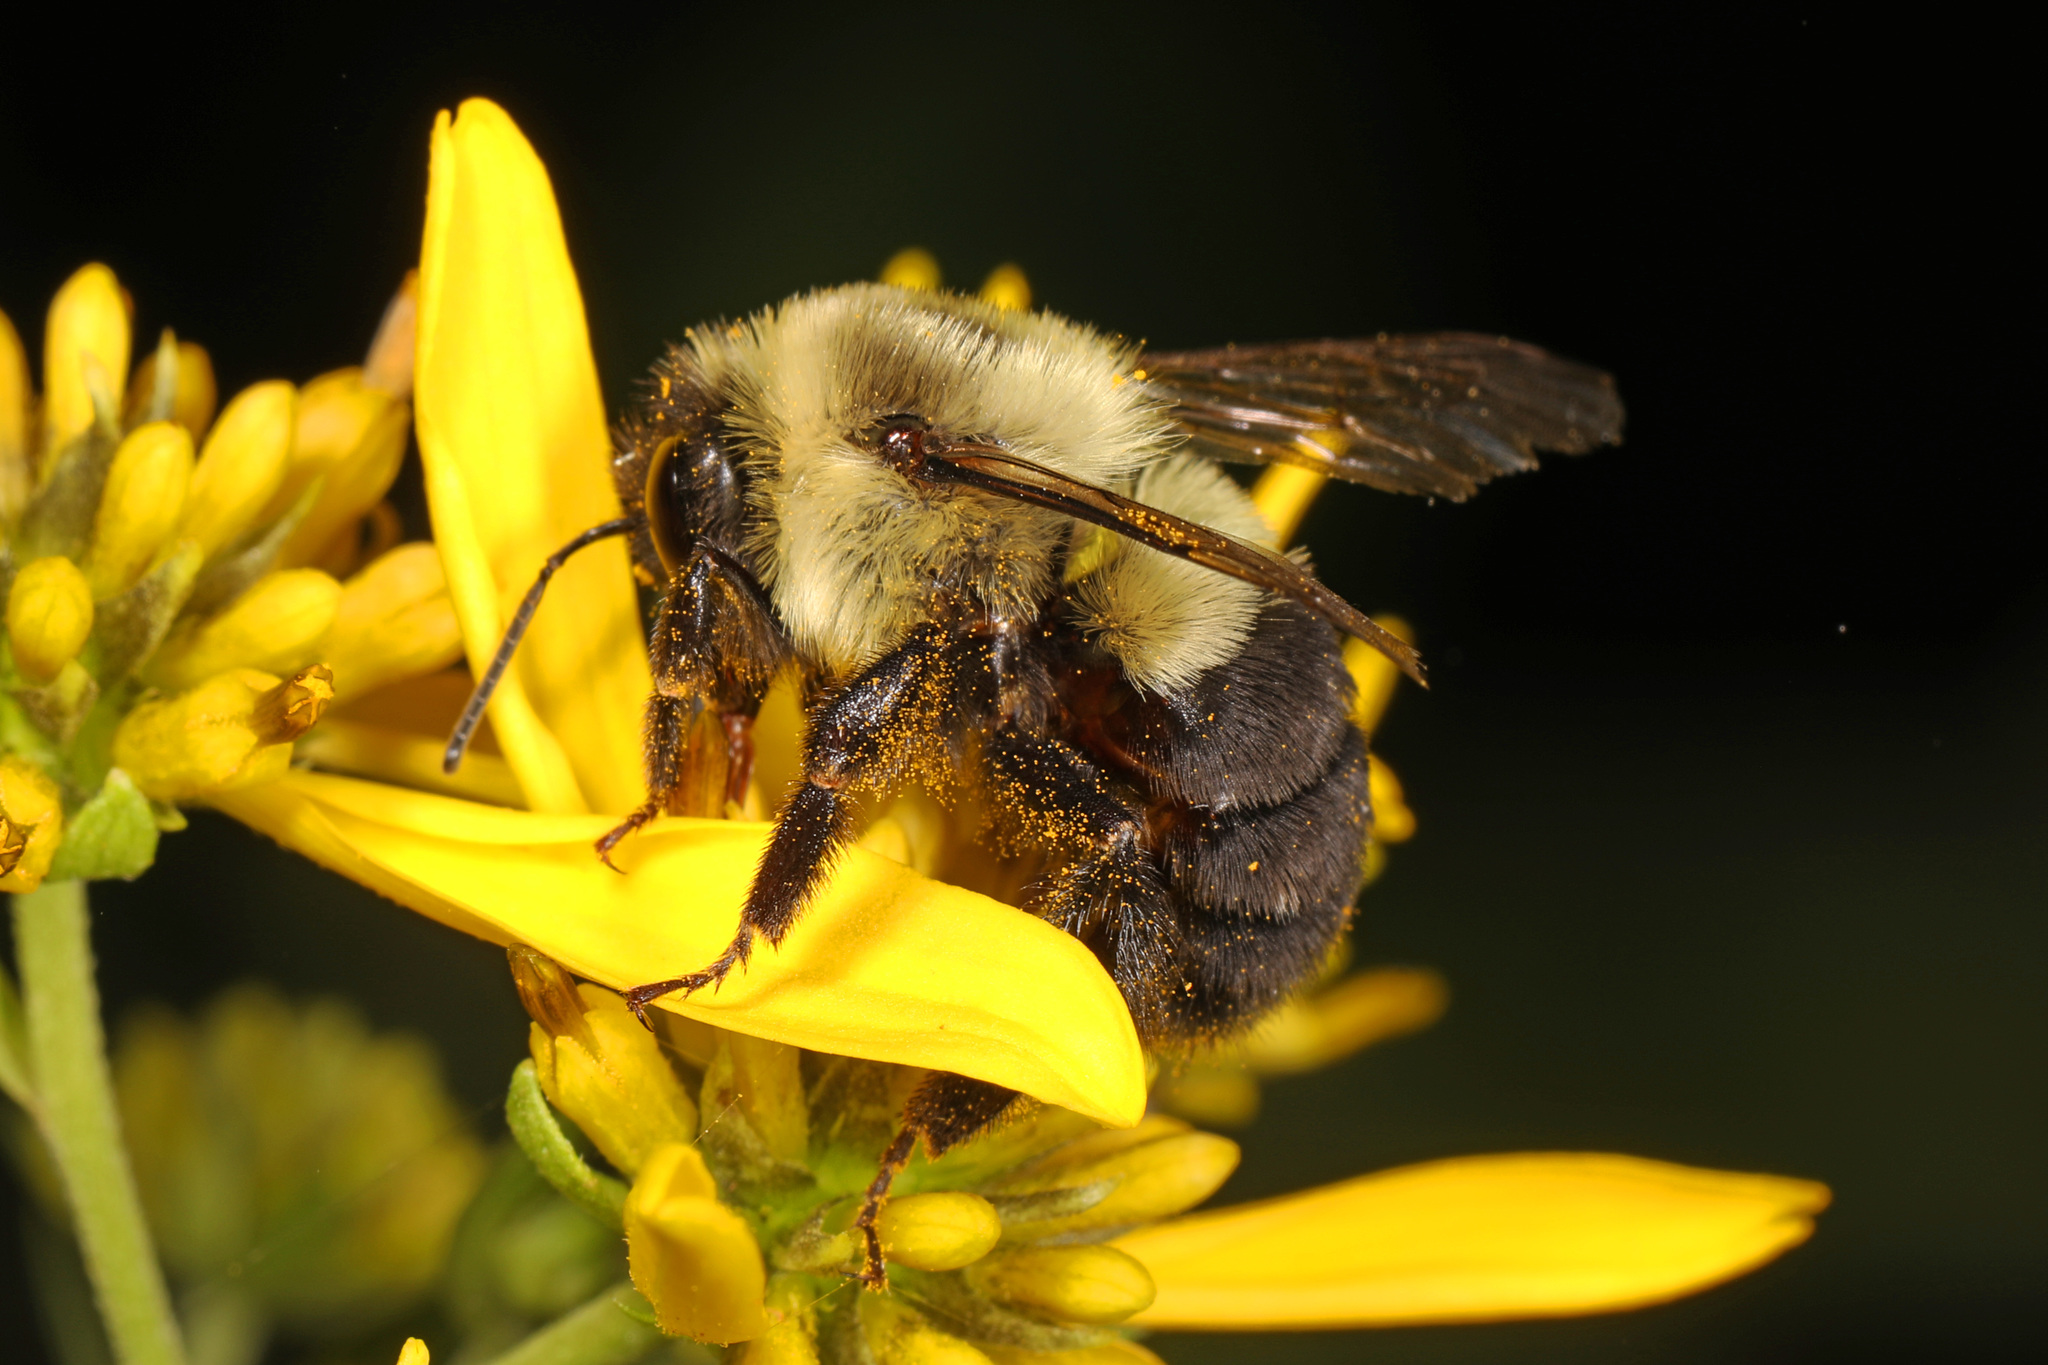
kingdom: Animalia
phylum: Arthropoda
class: Insecta
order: Hymenoptera
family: Apidae
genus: Bombus
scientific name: Bombus impatiens
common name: Common eastern bumble bee
